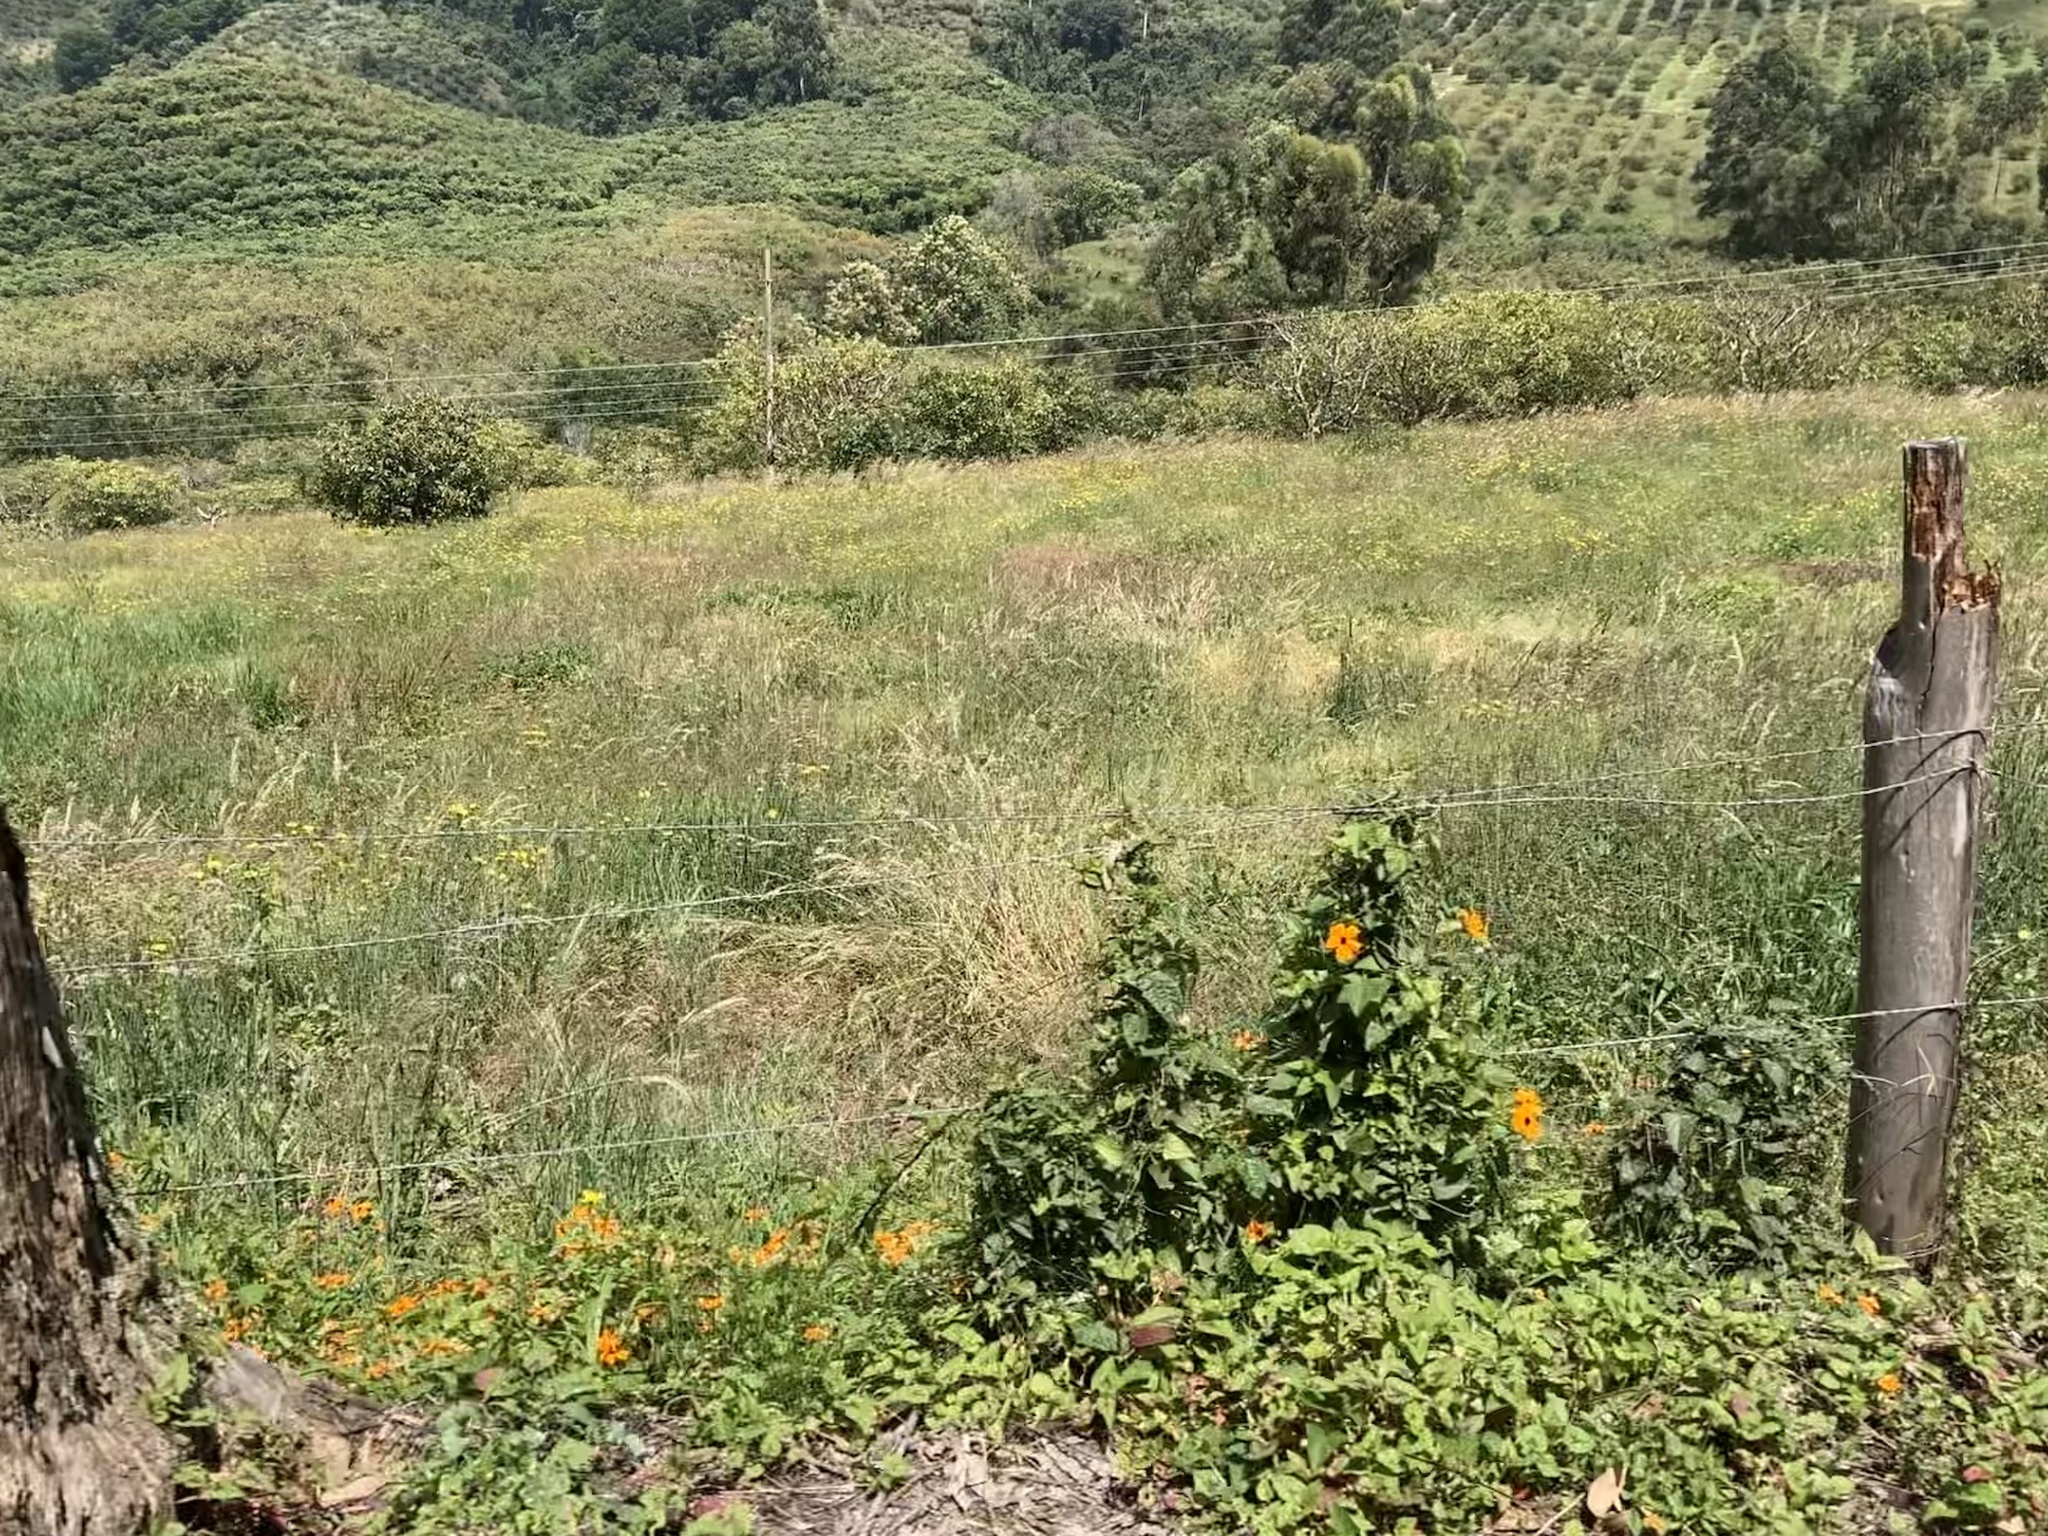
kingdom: Plantae
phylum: Tracheophyta
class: Magnoliopsida
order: Lamiales
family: Acanthaceae
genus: Thunbergia
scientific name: Thunbergia alata
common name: Blackeyed susan vine
